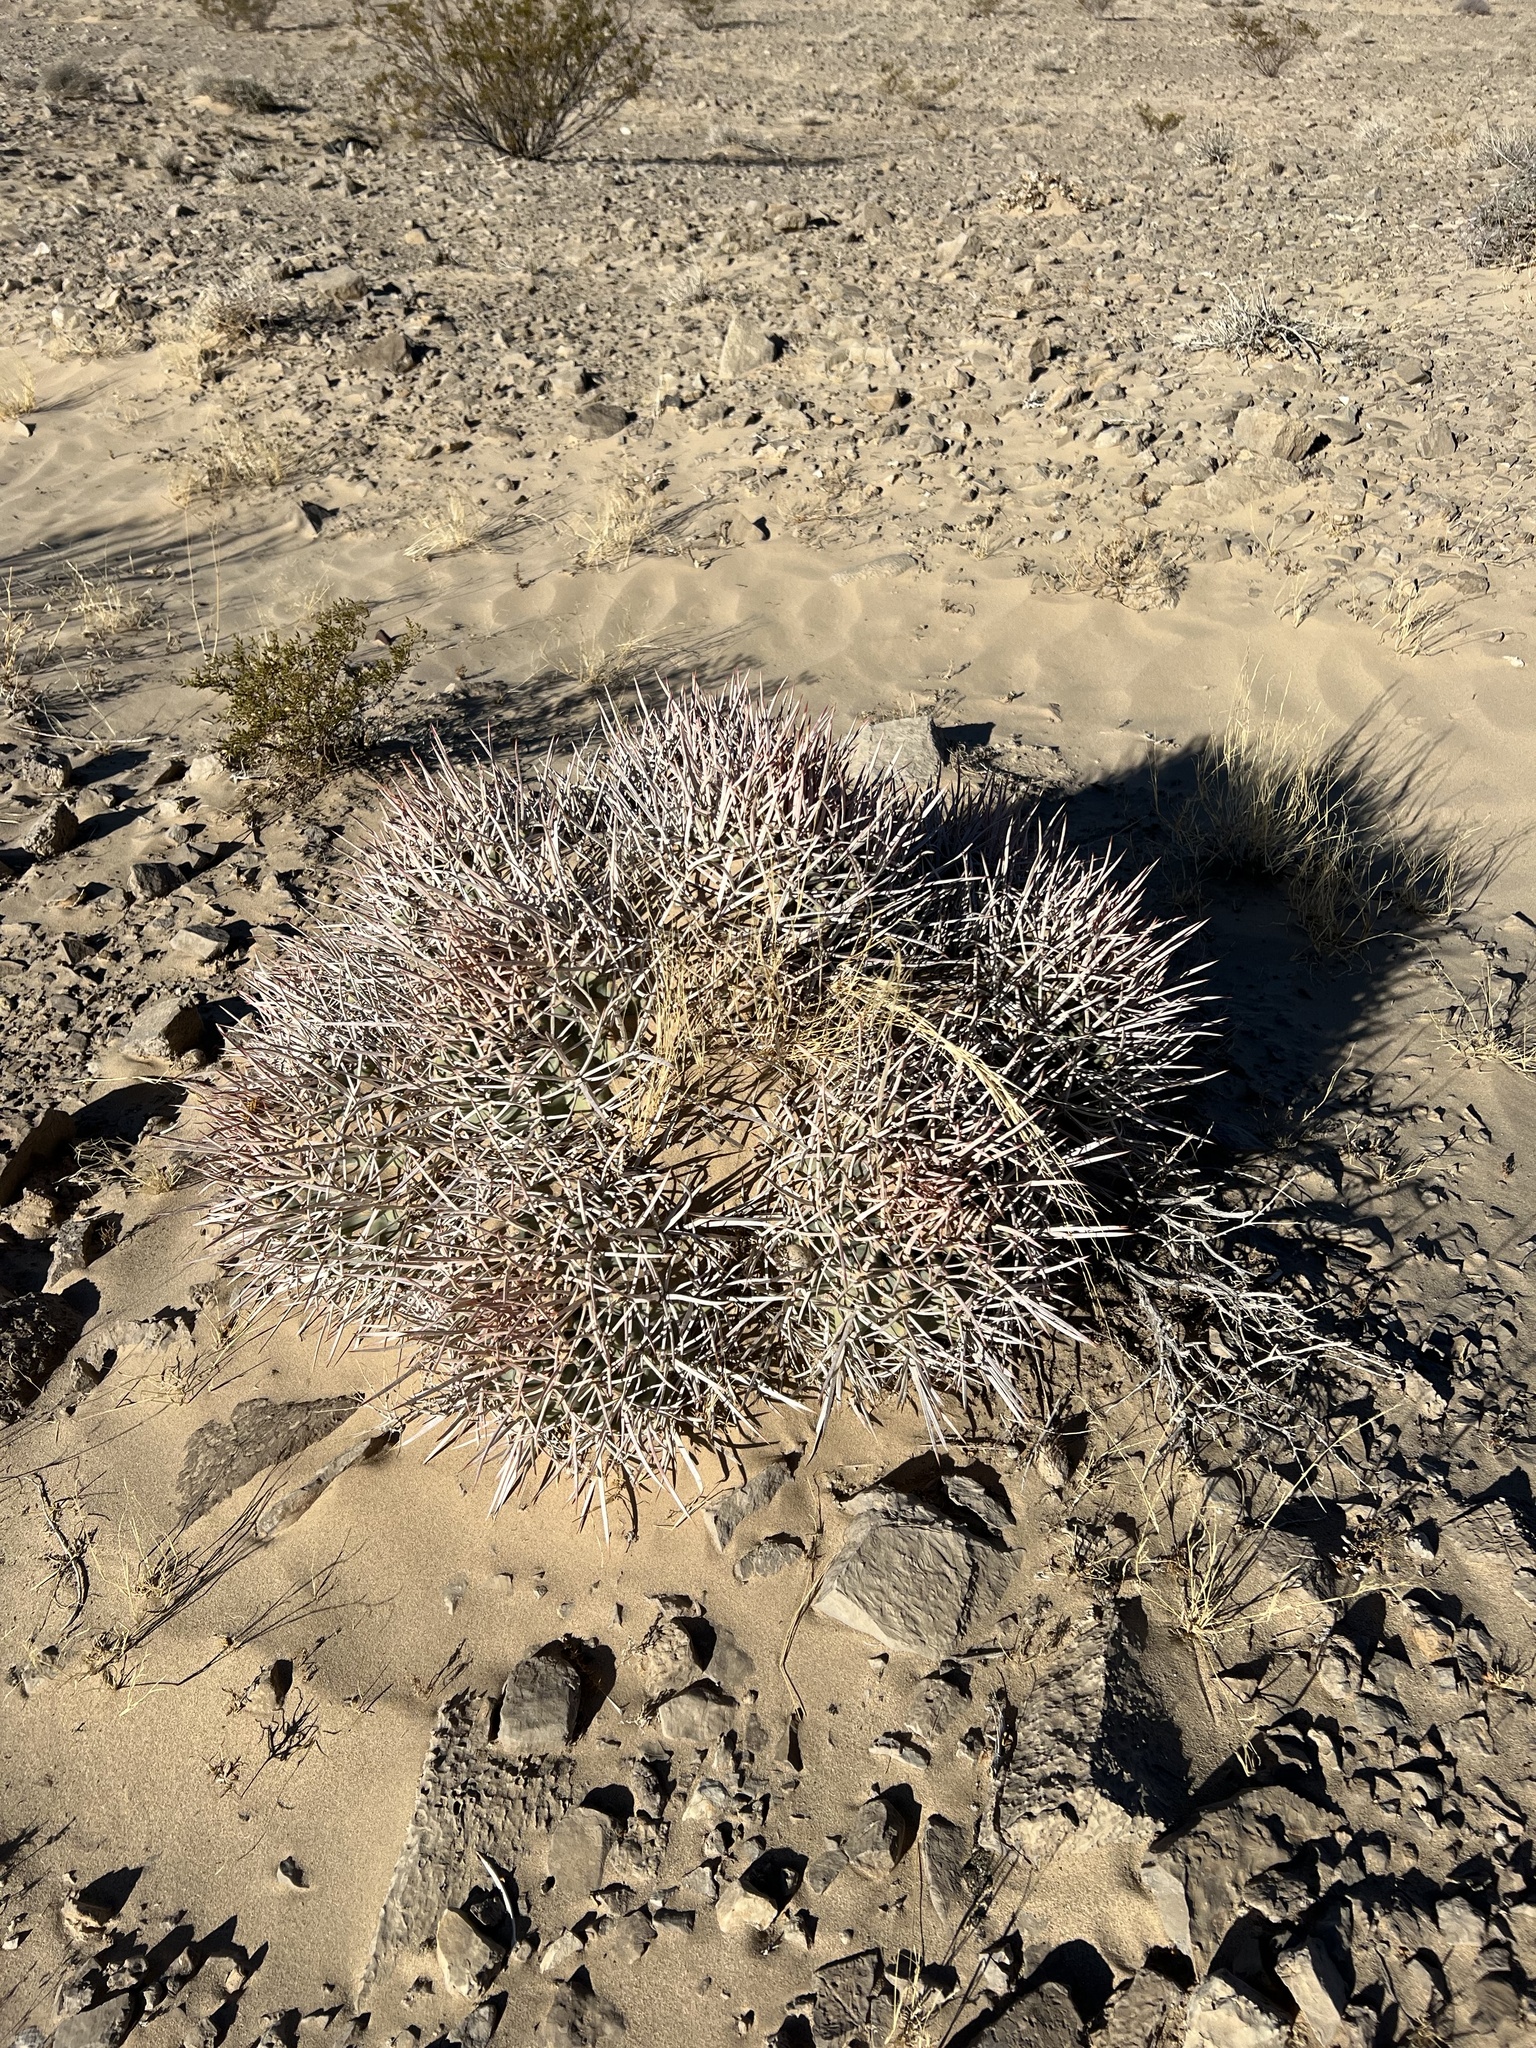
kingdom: Plantae
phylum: Tracheophyta
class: Magnoliopsida
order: Caryophyllales
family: Cactaceae
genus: Echinocactus
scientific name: Echinocactus polycephalus
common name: Cottontop cactus
